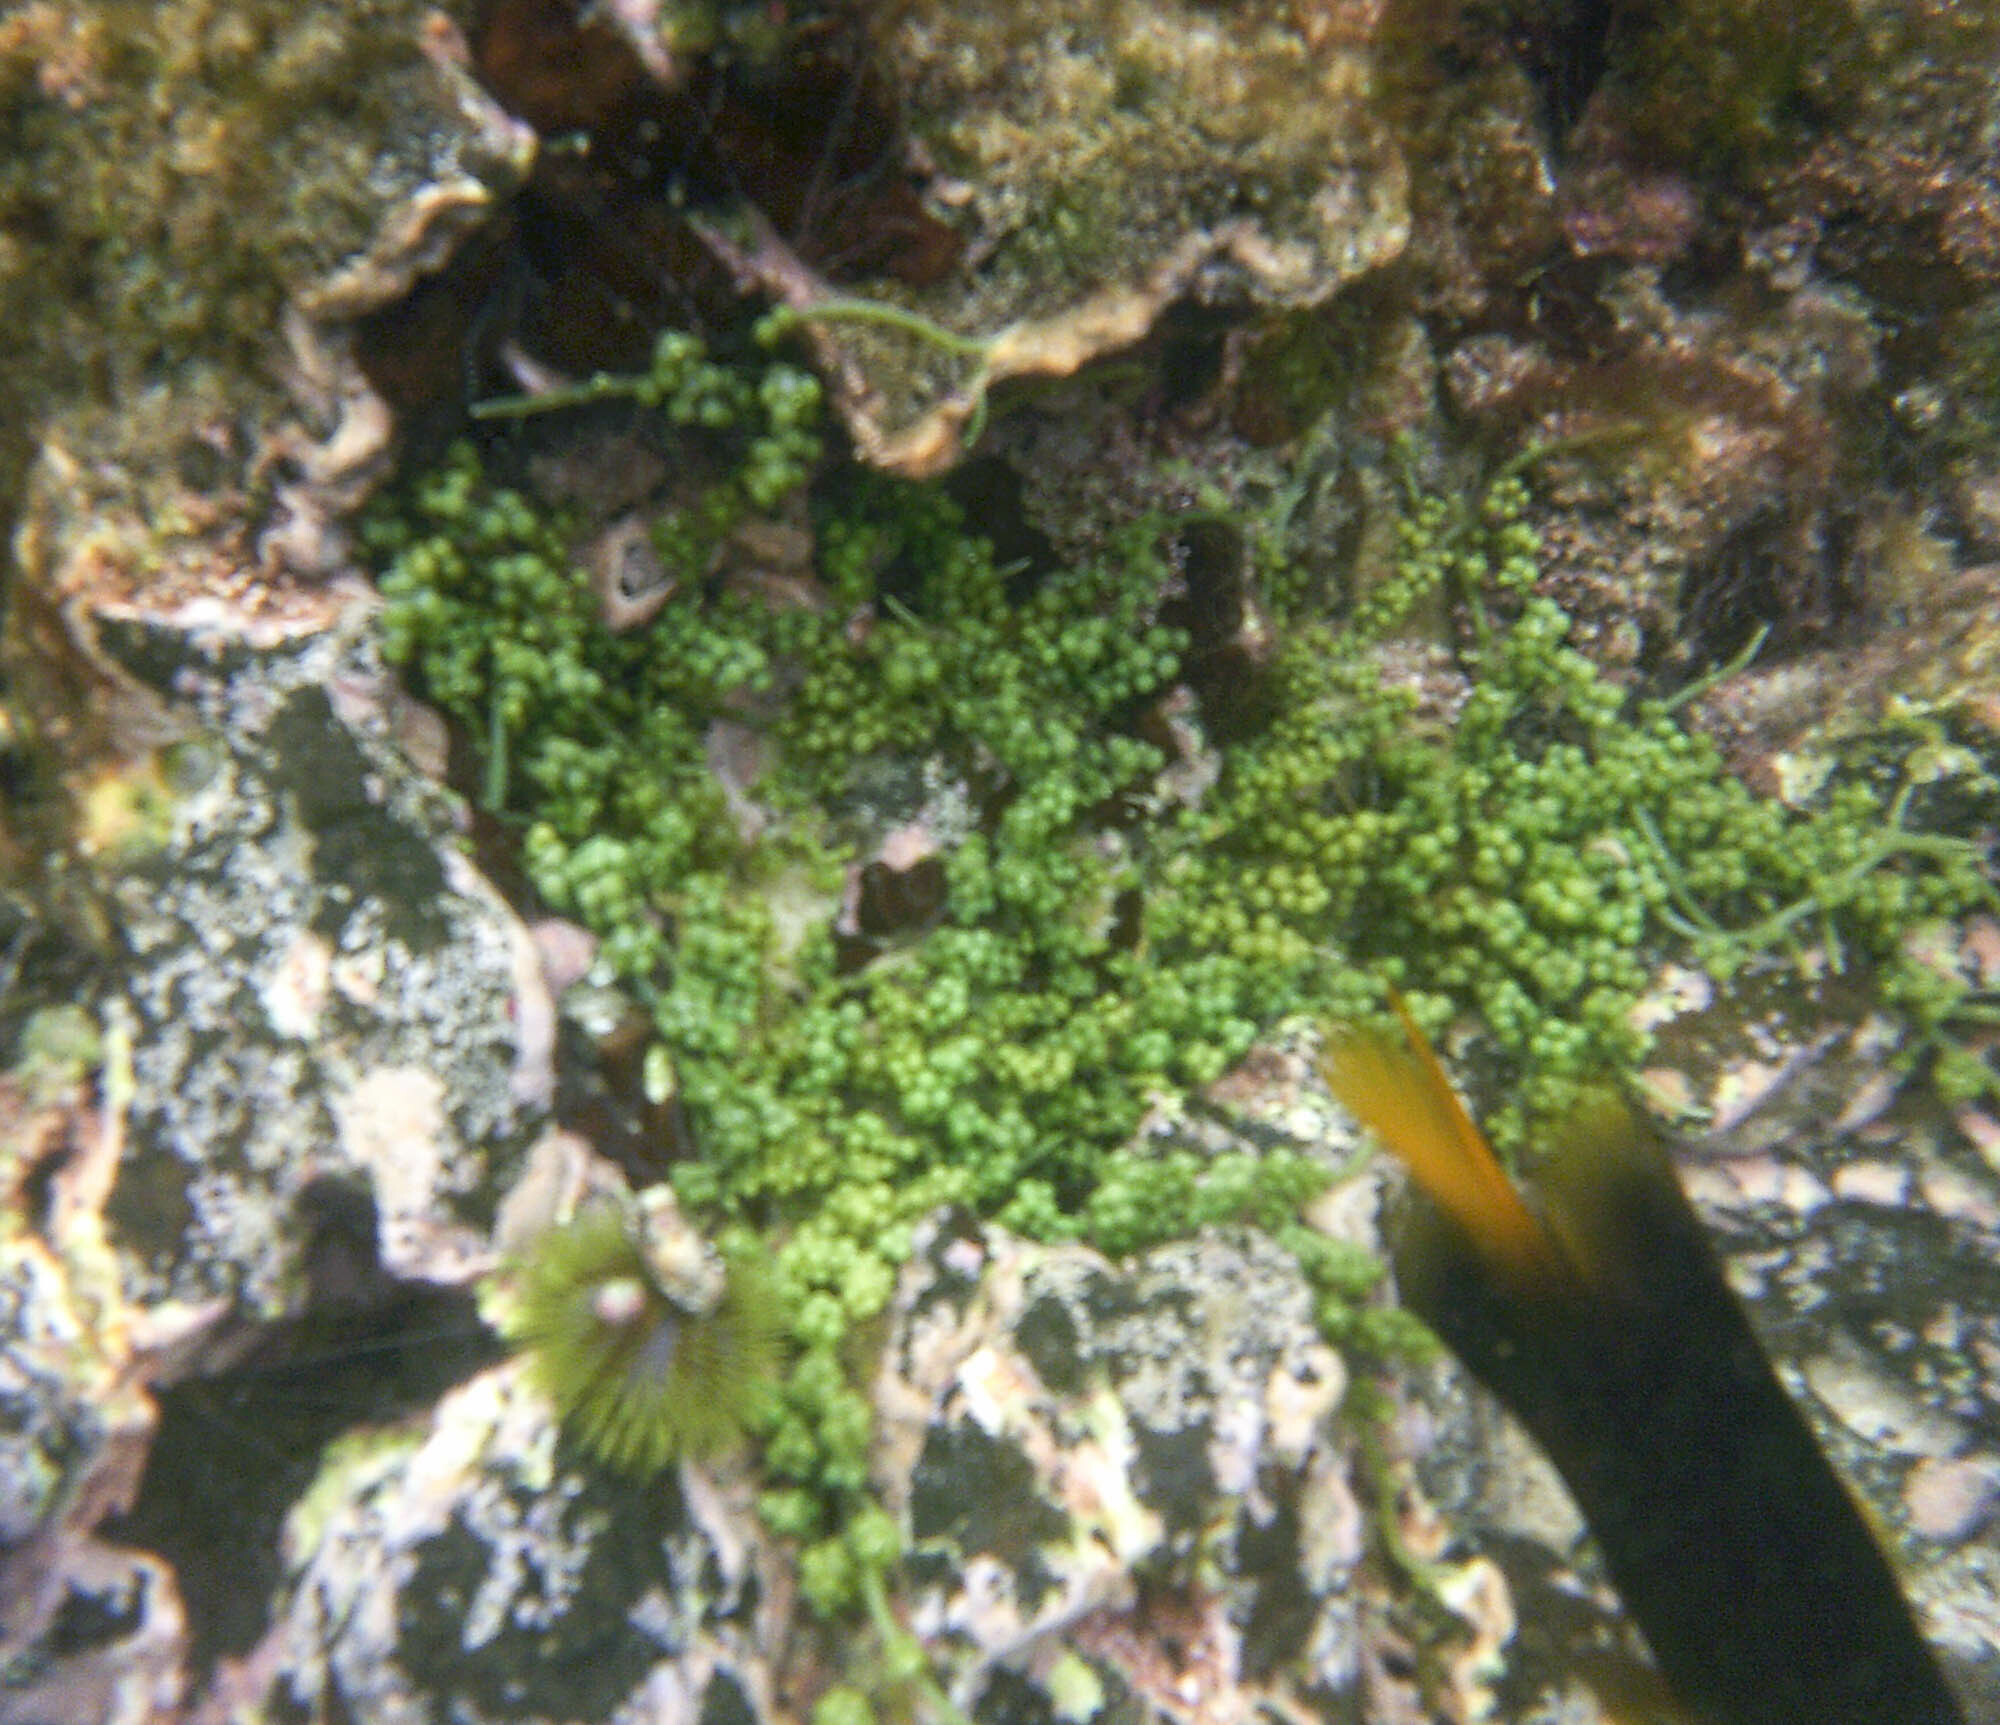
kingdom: Plantae
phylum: Chlorophyta
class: Ulvophyceae
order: Bryopsidales
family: Caulerpaceae
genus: Caulerpa
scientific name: Caulerpa racemosa
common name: Green grape algae
